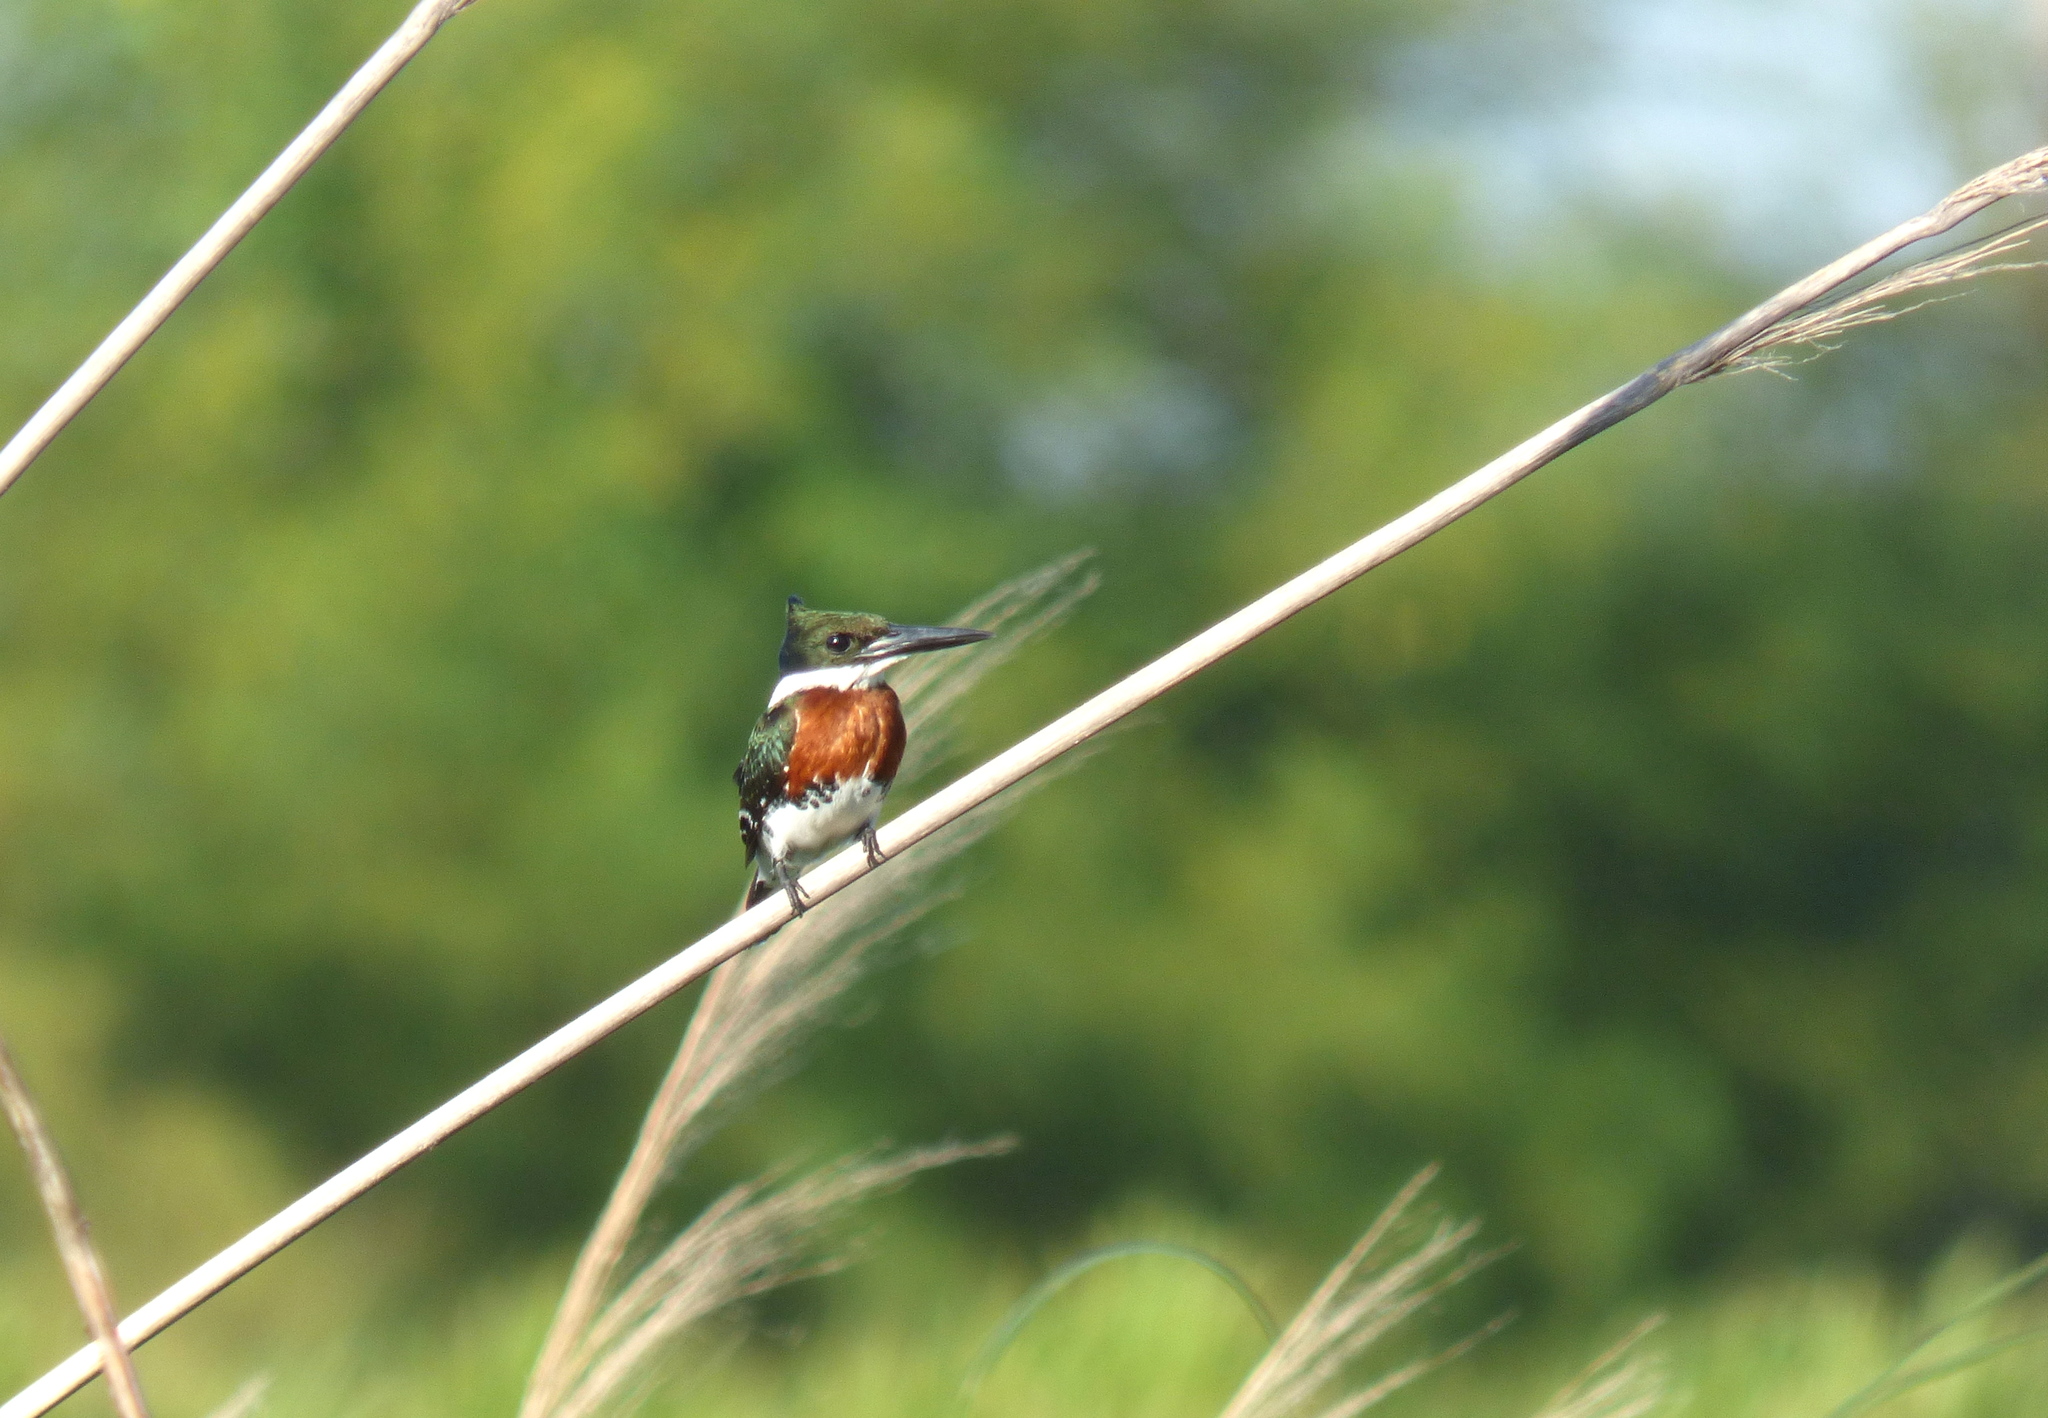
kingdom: Animalia
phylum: Chordata
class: Aves
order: Coraciiformes
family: Alcedinidae
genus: Chloroceryle
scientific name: Chloroceryle americana
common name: Green kingfisher
